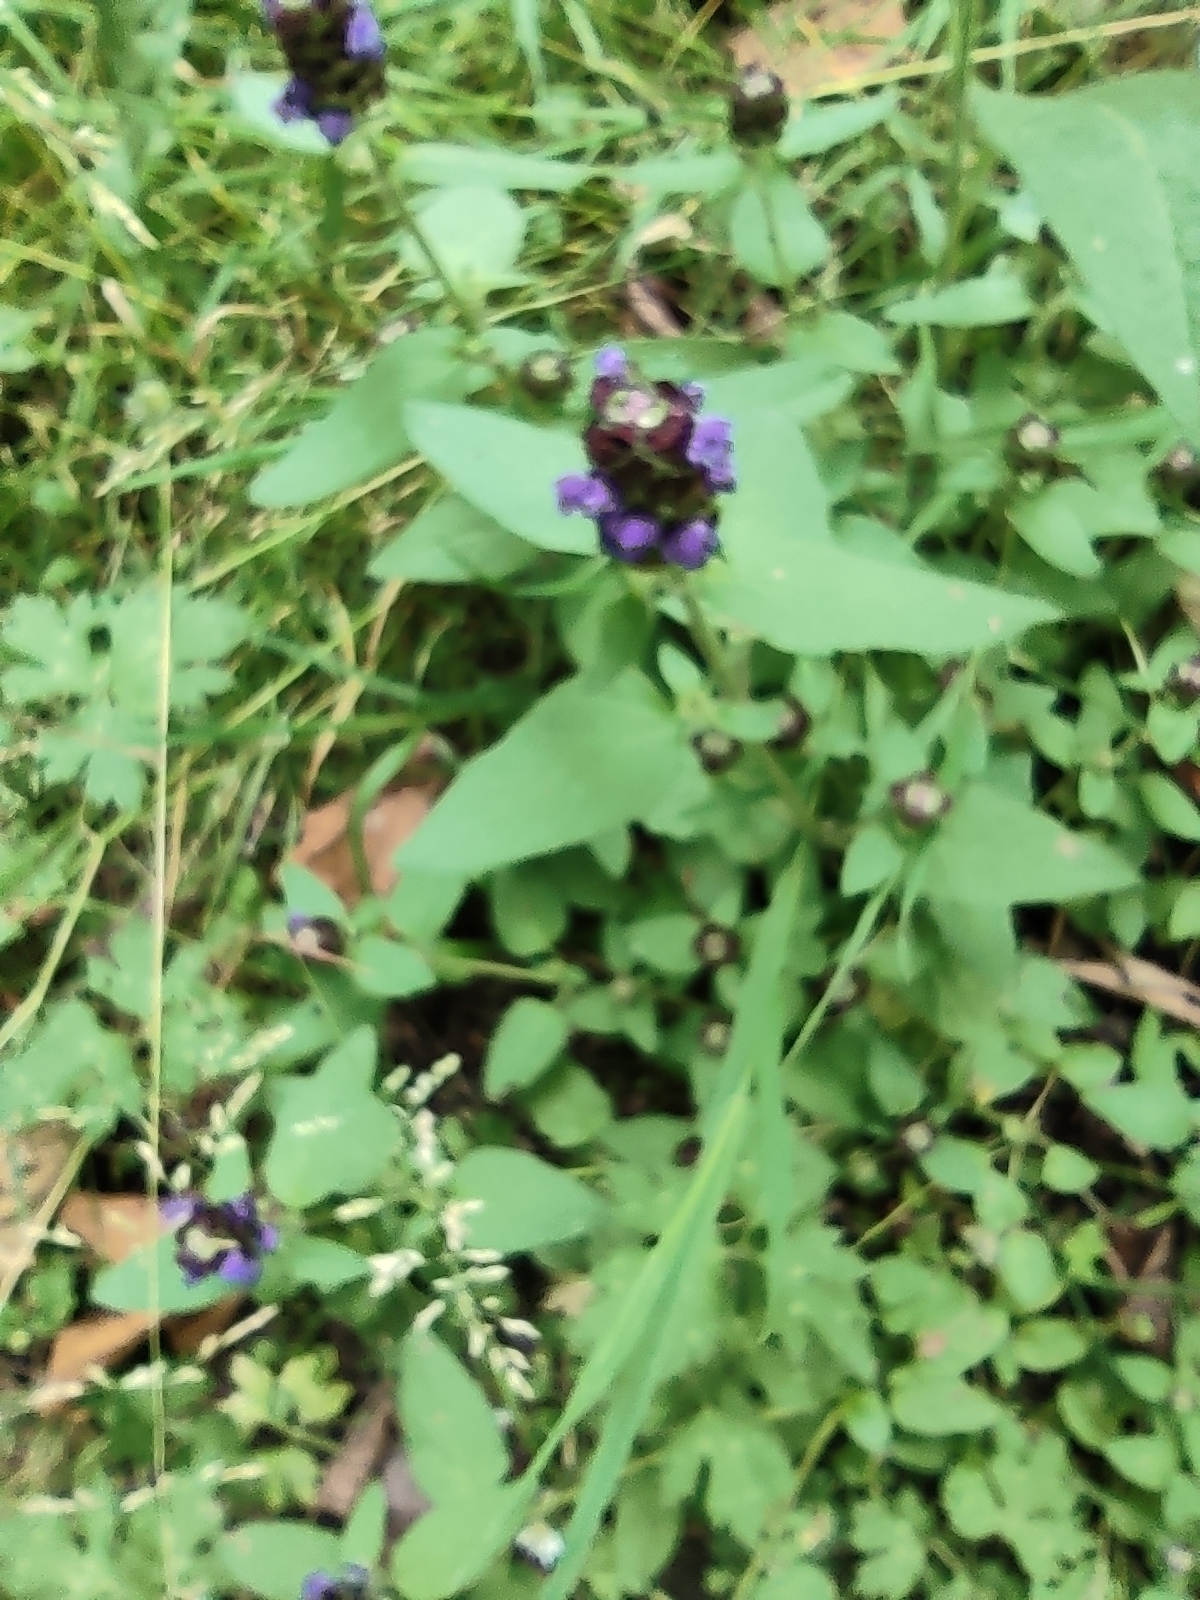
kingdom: Plantae
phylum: Tracheophyta
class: Magnoliopsida
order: Lamiales
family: Lamiaceae
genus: Prunella
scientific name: Prunella vulgaris
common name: Heal-all
